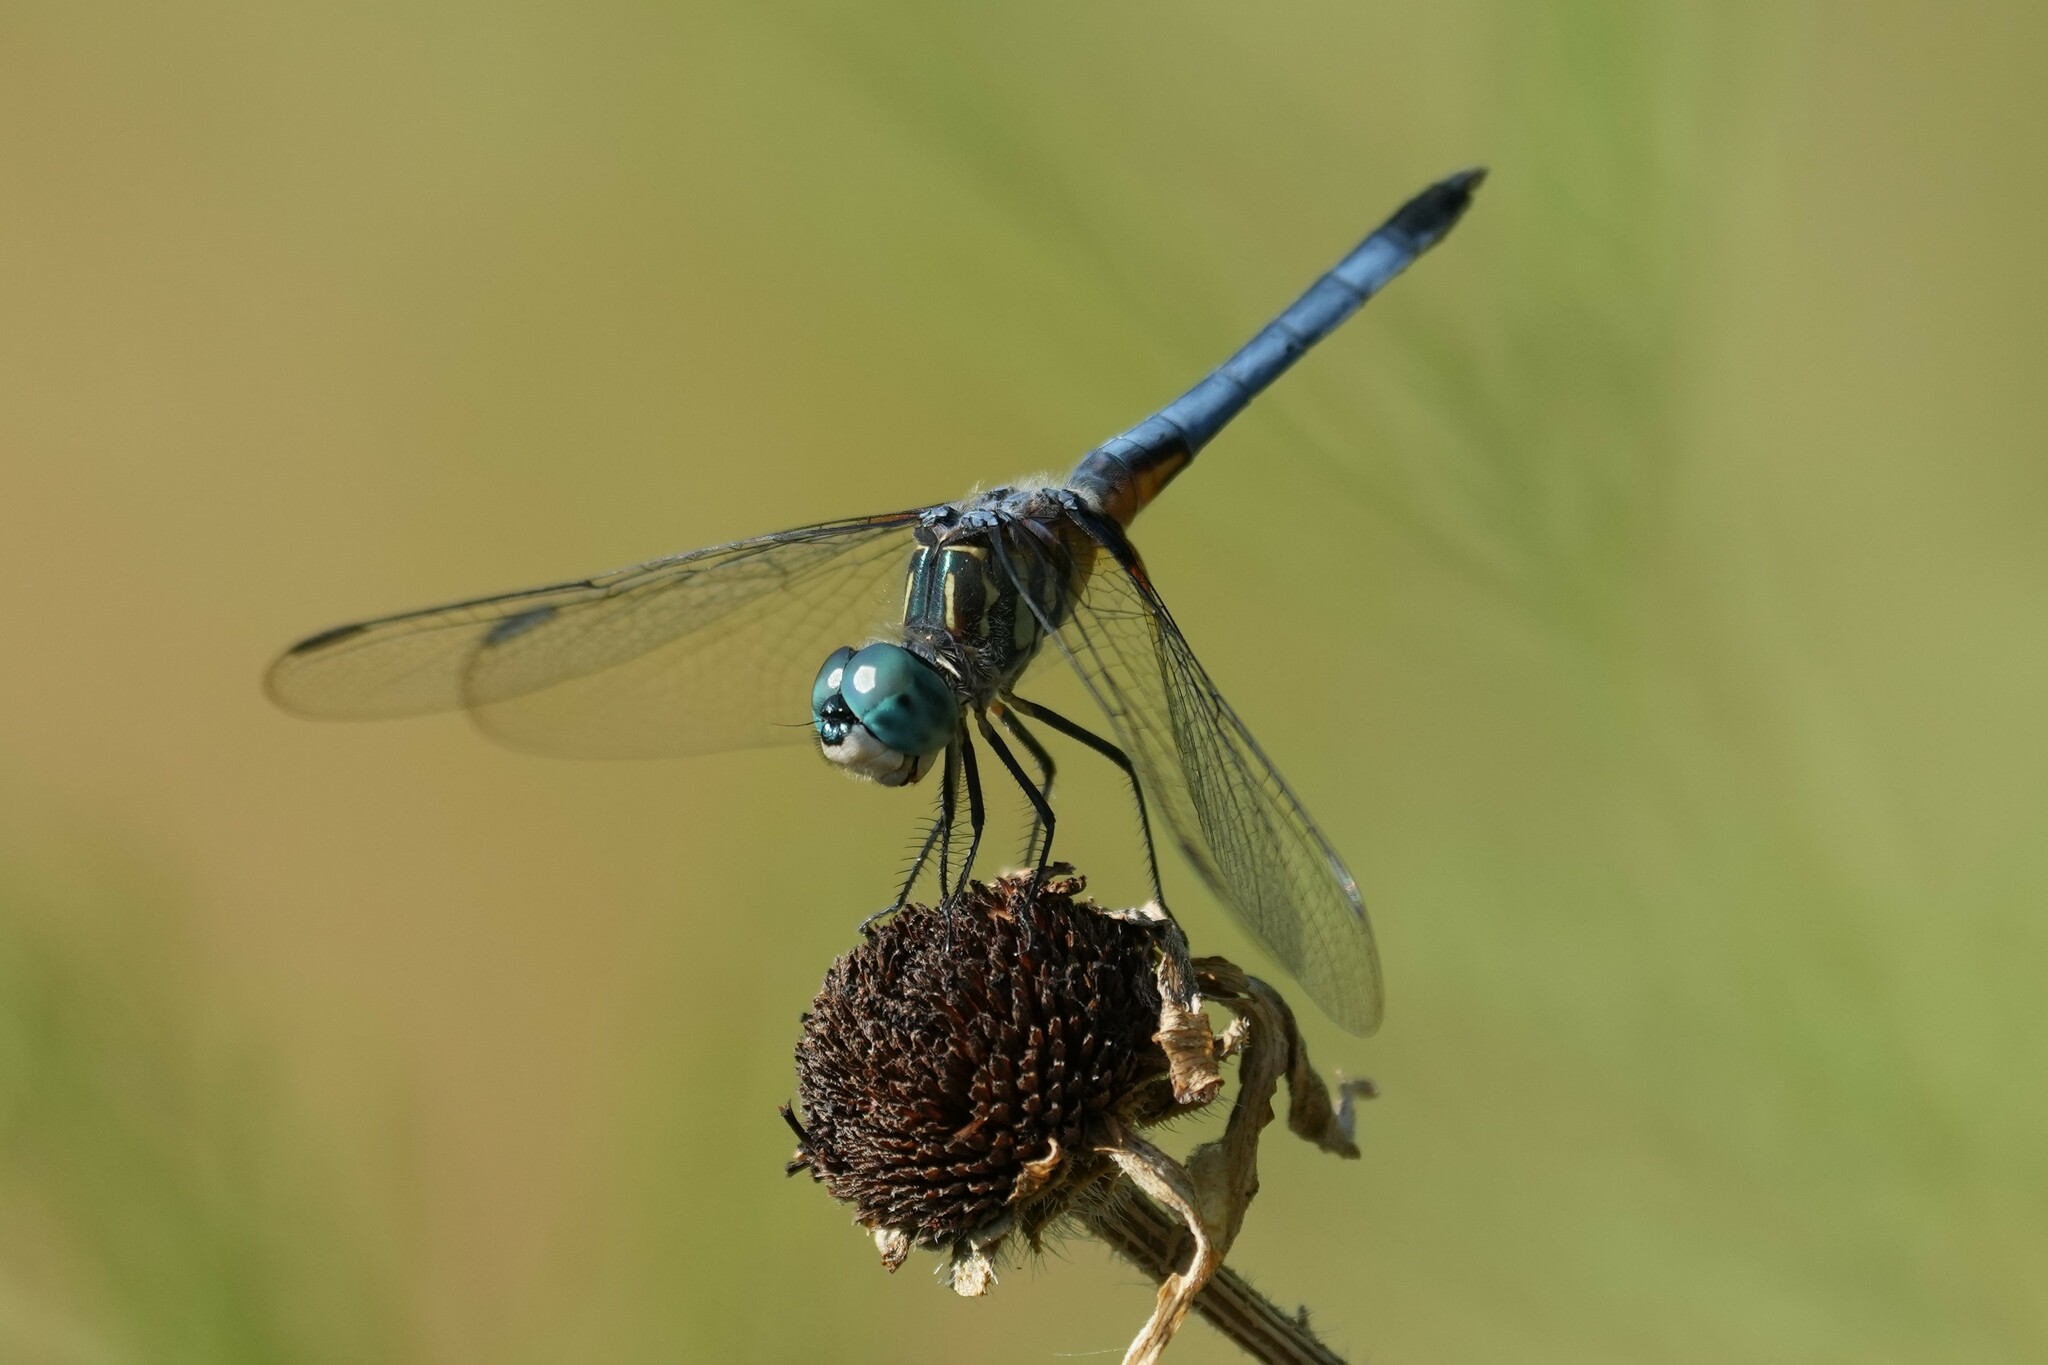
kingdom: Animalia
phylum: Arthropoda
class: Insecta
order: Odonata
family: Libellulidae
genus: Pachydiplax
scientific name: Pachydiplax longipennis
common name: Blue dasher
